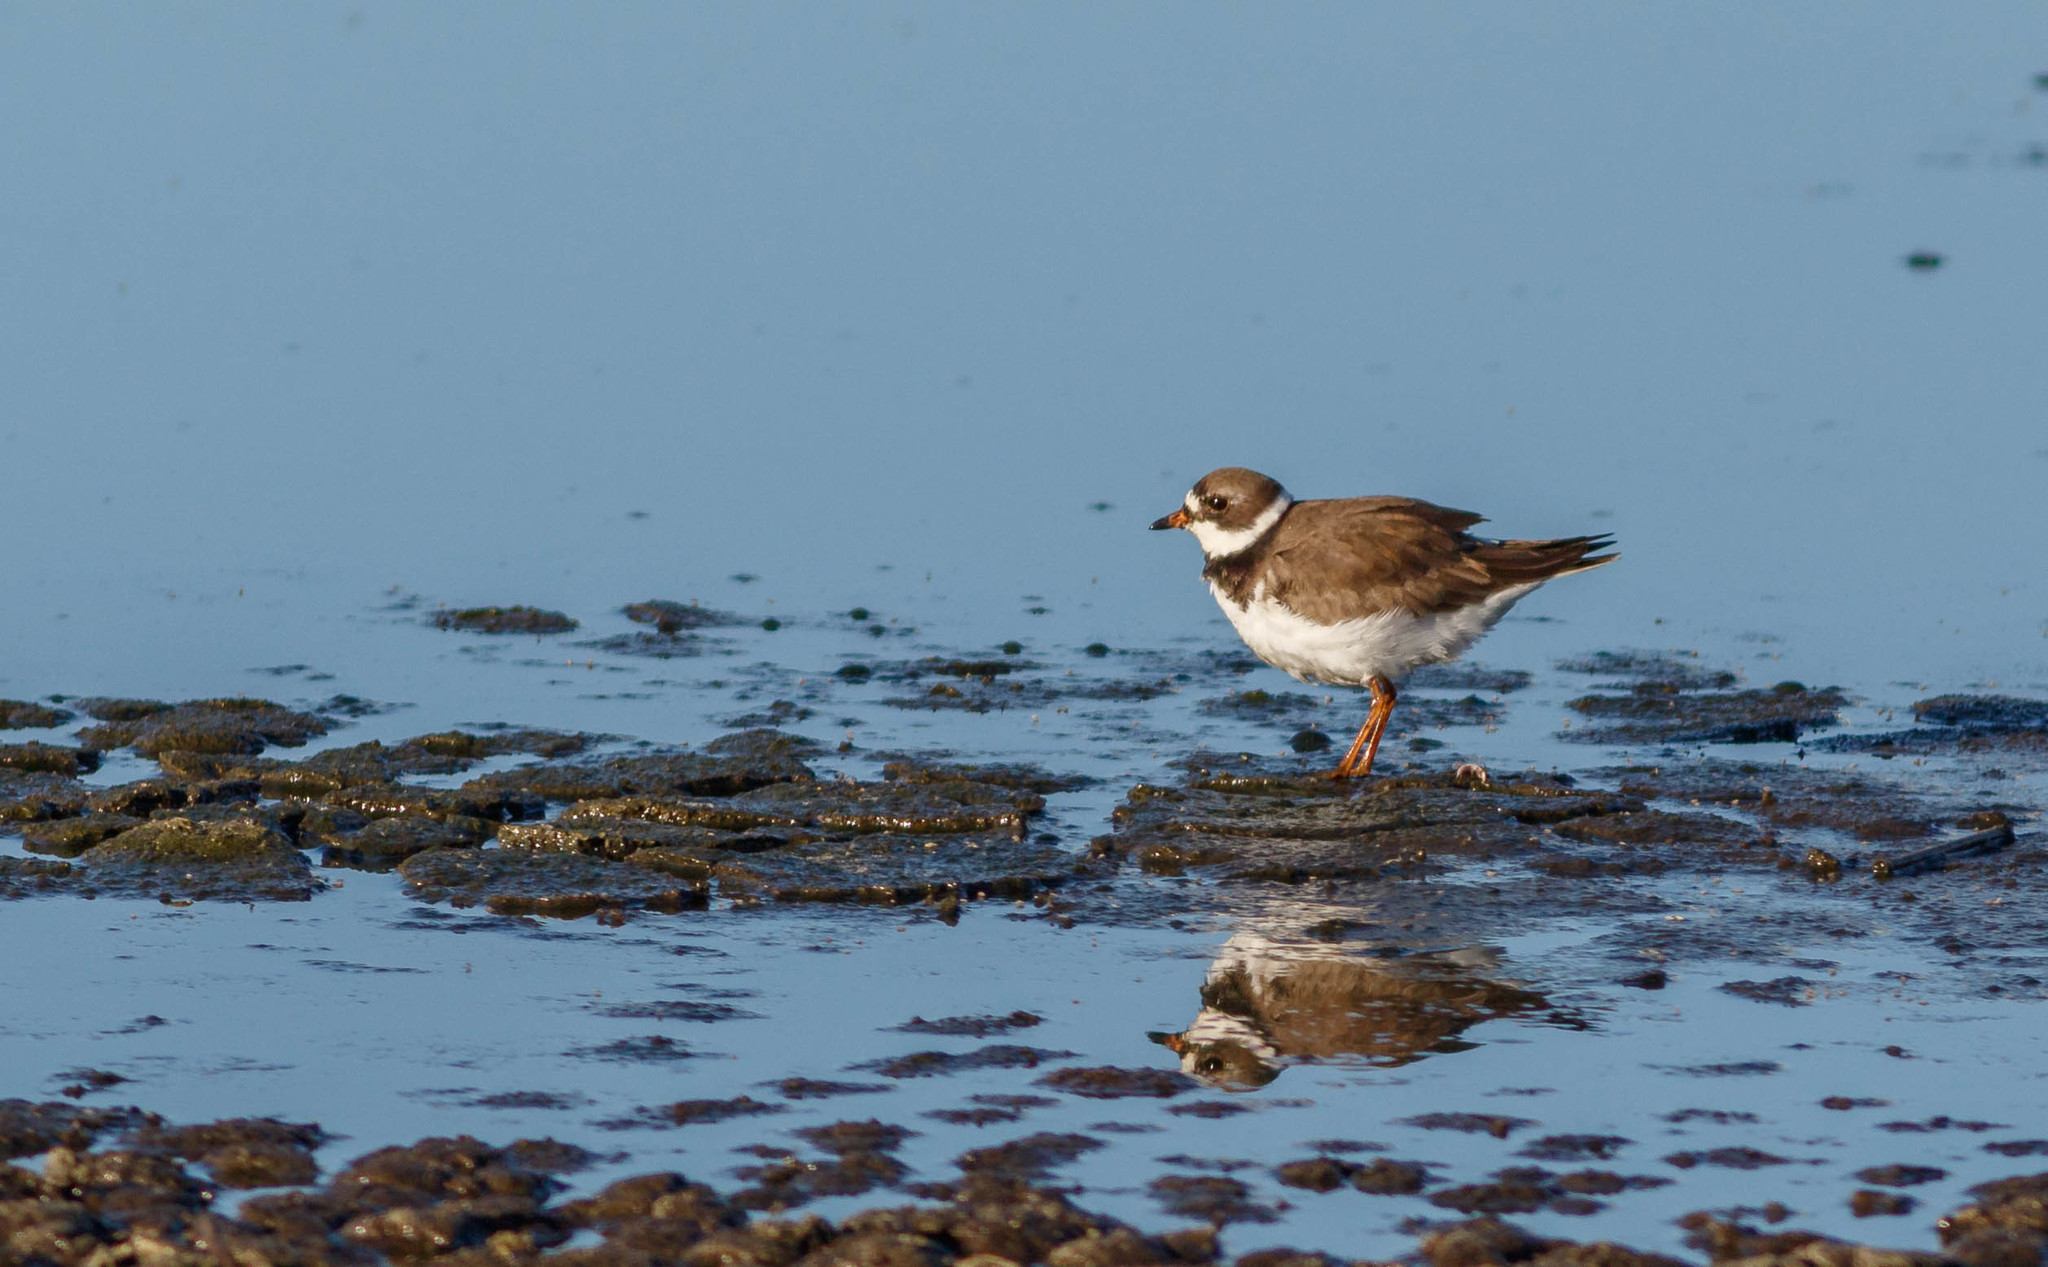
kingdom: Animalia
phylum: Chordata
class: Aves
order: Charadriiformes
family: Charadriidae
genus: Charadrius
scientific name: Charadrius semipalmatus
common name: Semipalmated plover
